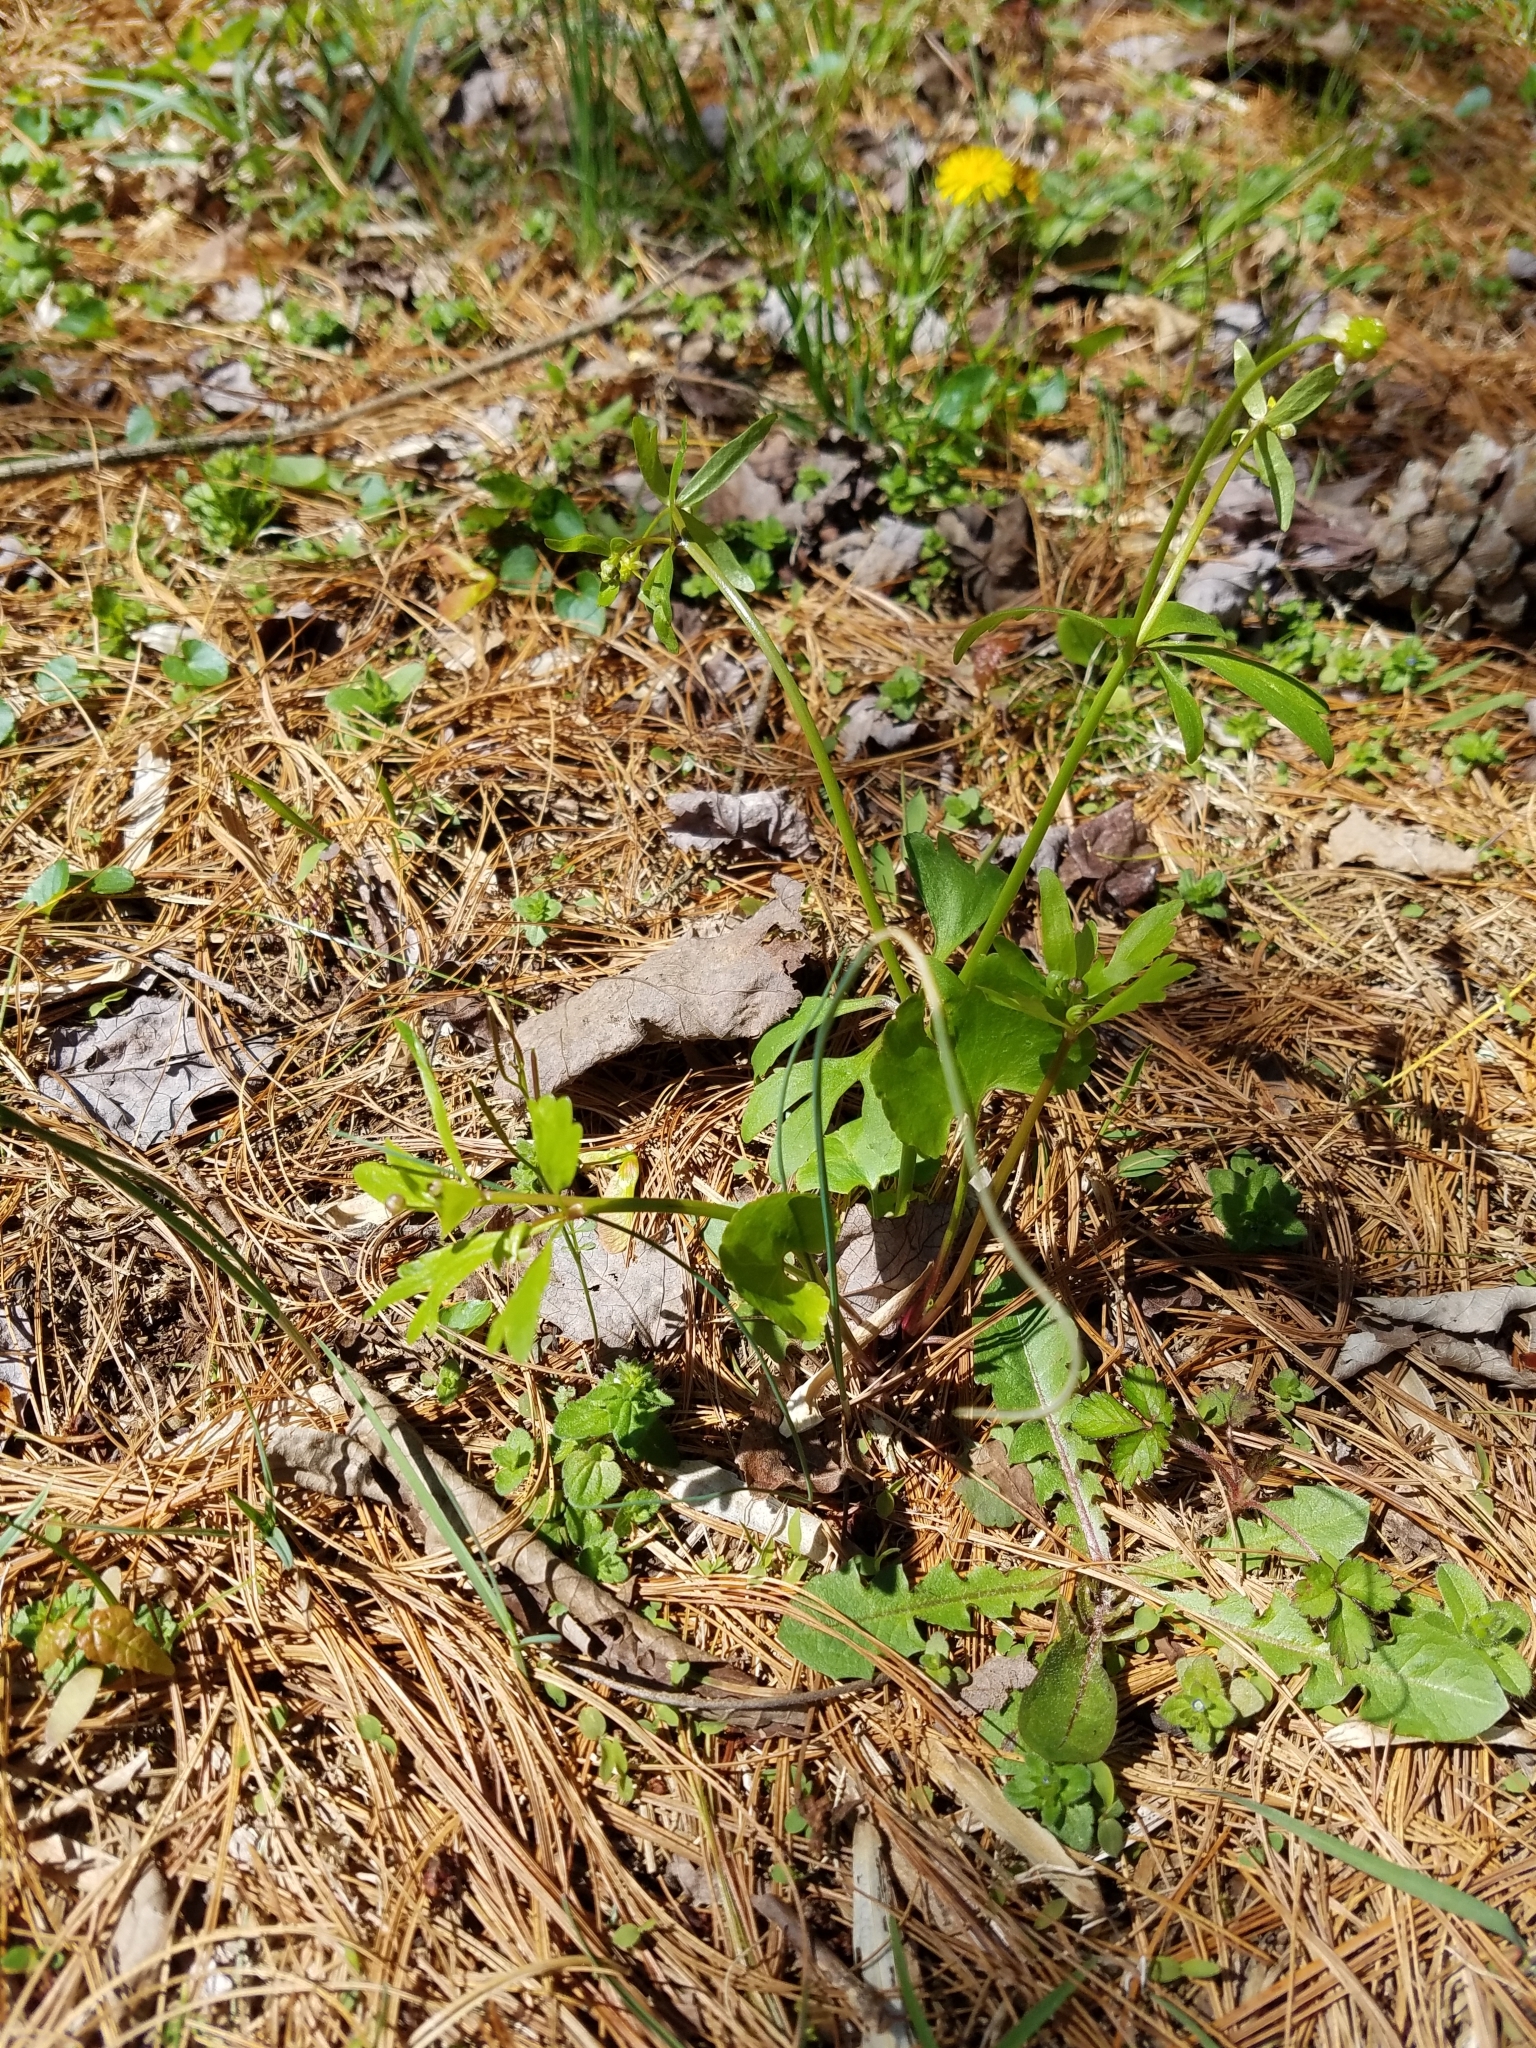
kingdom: Plantae
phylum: Tracheophyta
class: Magnoliopsida
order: Ranunculales
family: Ranunculaceae
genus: Ranunculus
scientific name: Ranunculus abortivus
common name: Early wood buttercup
